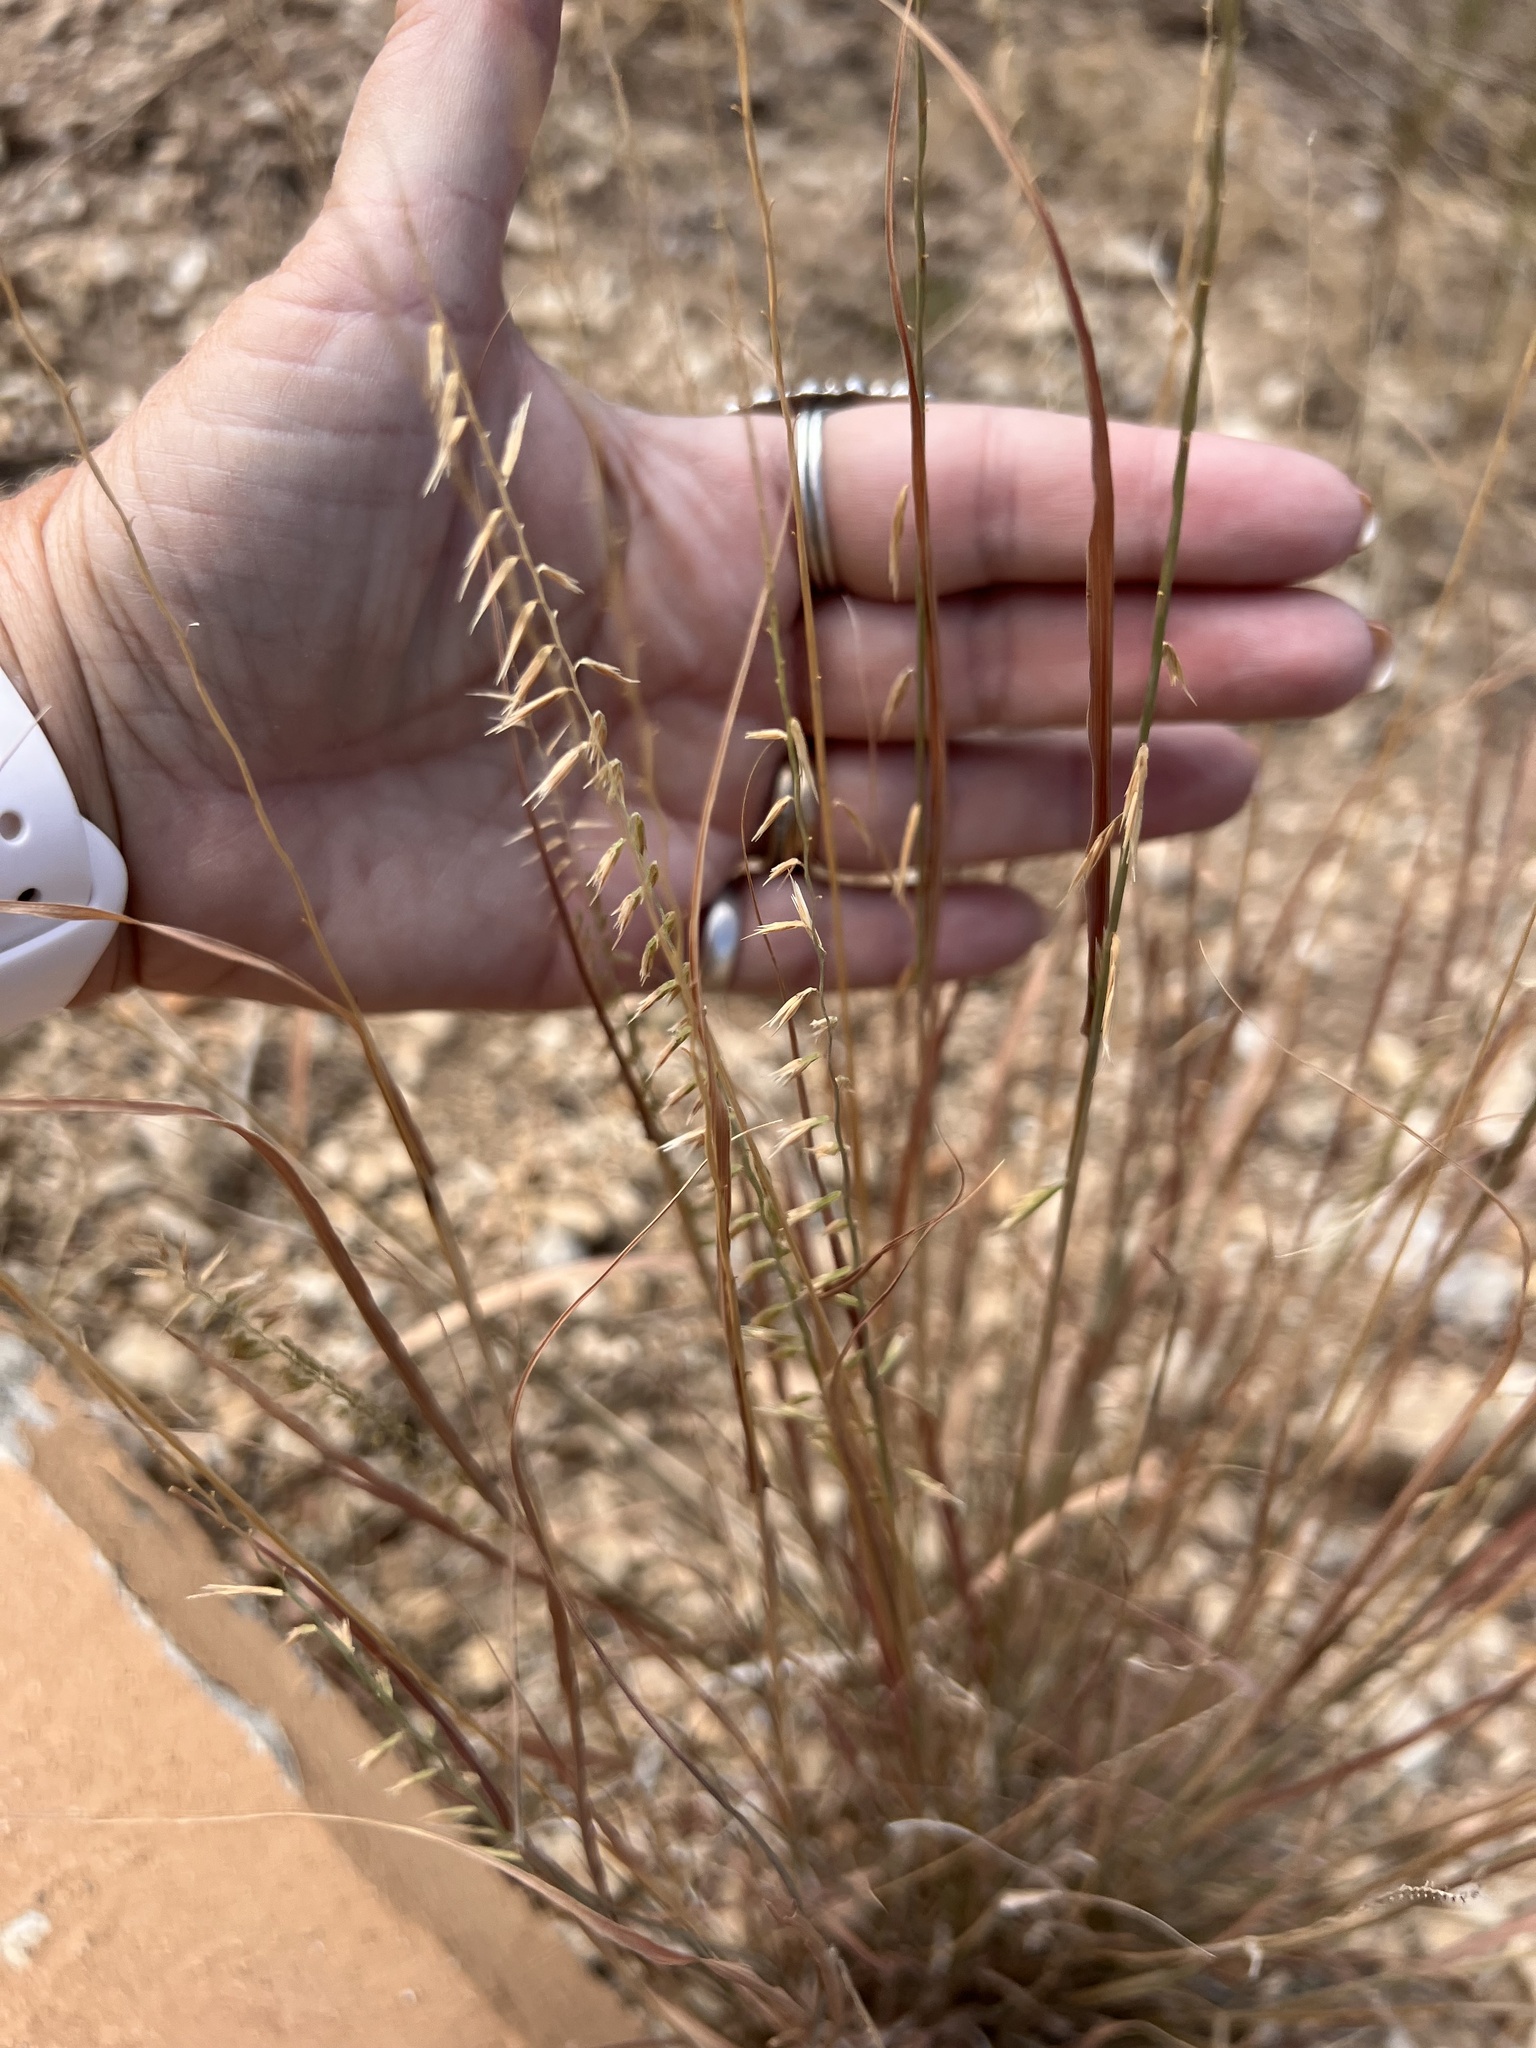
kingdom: Plantae
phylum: Tracheophyta
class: Liliopsida
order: Poales
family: Poaceae
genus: Bouteloua
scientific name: Bouteloua curtipendula
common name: Side-oats grama
